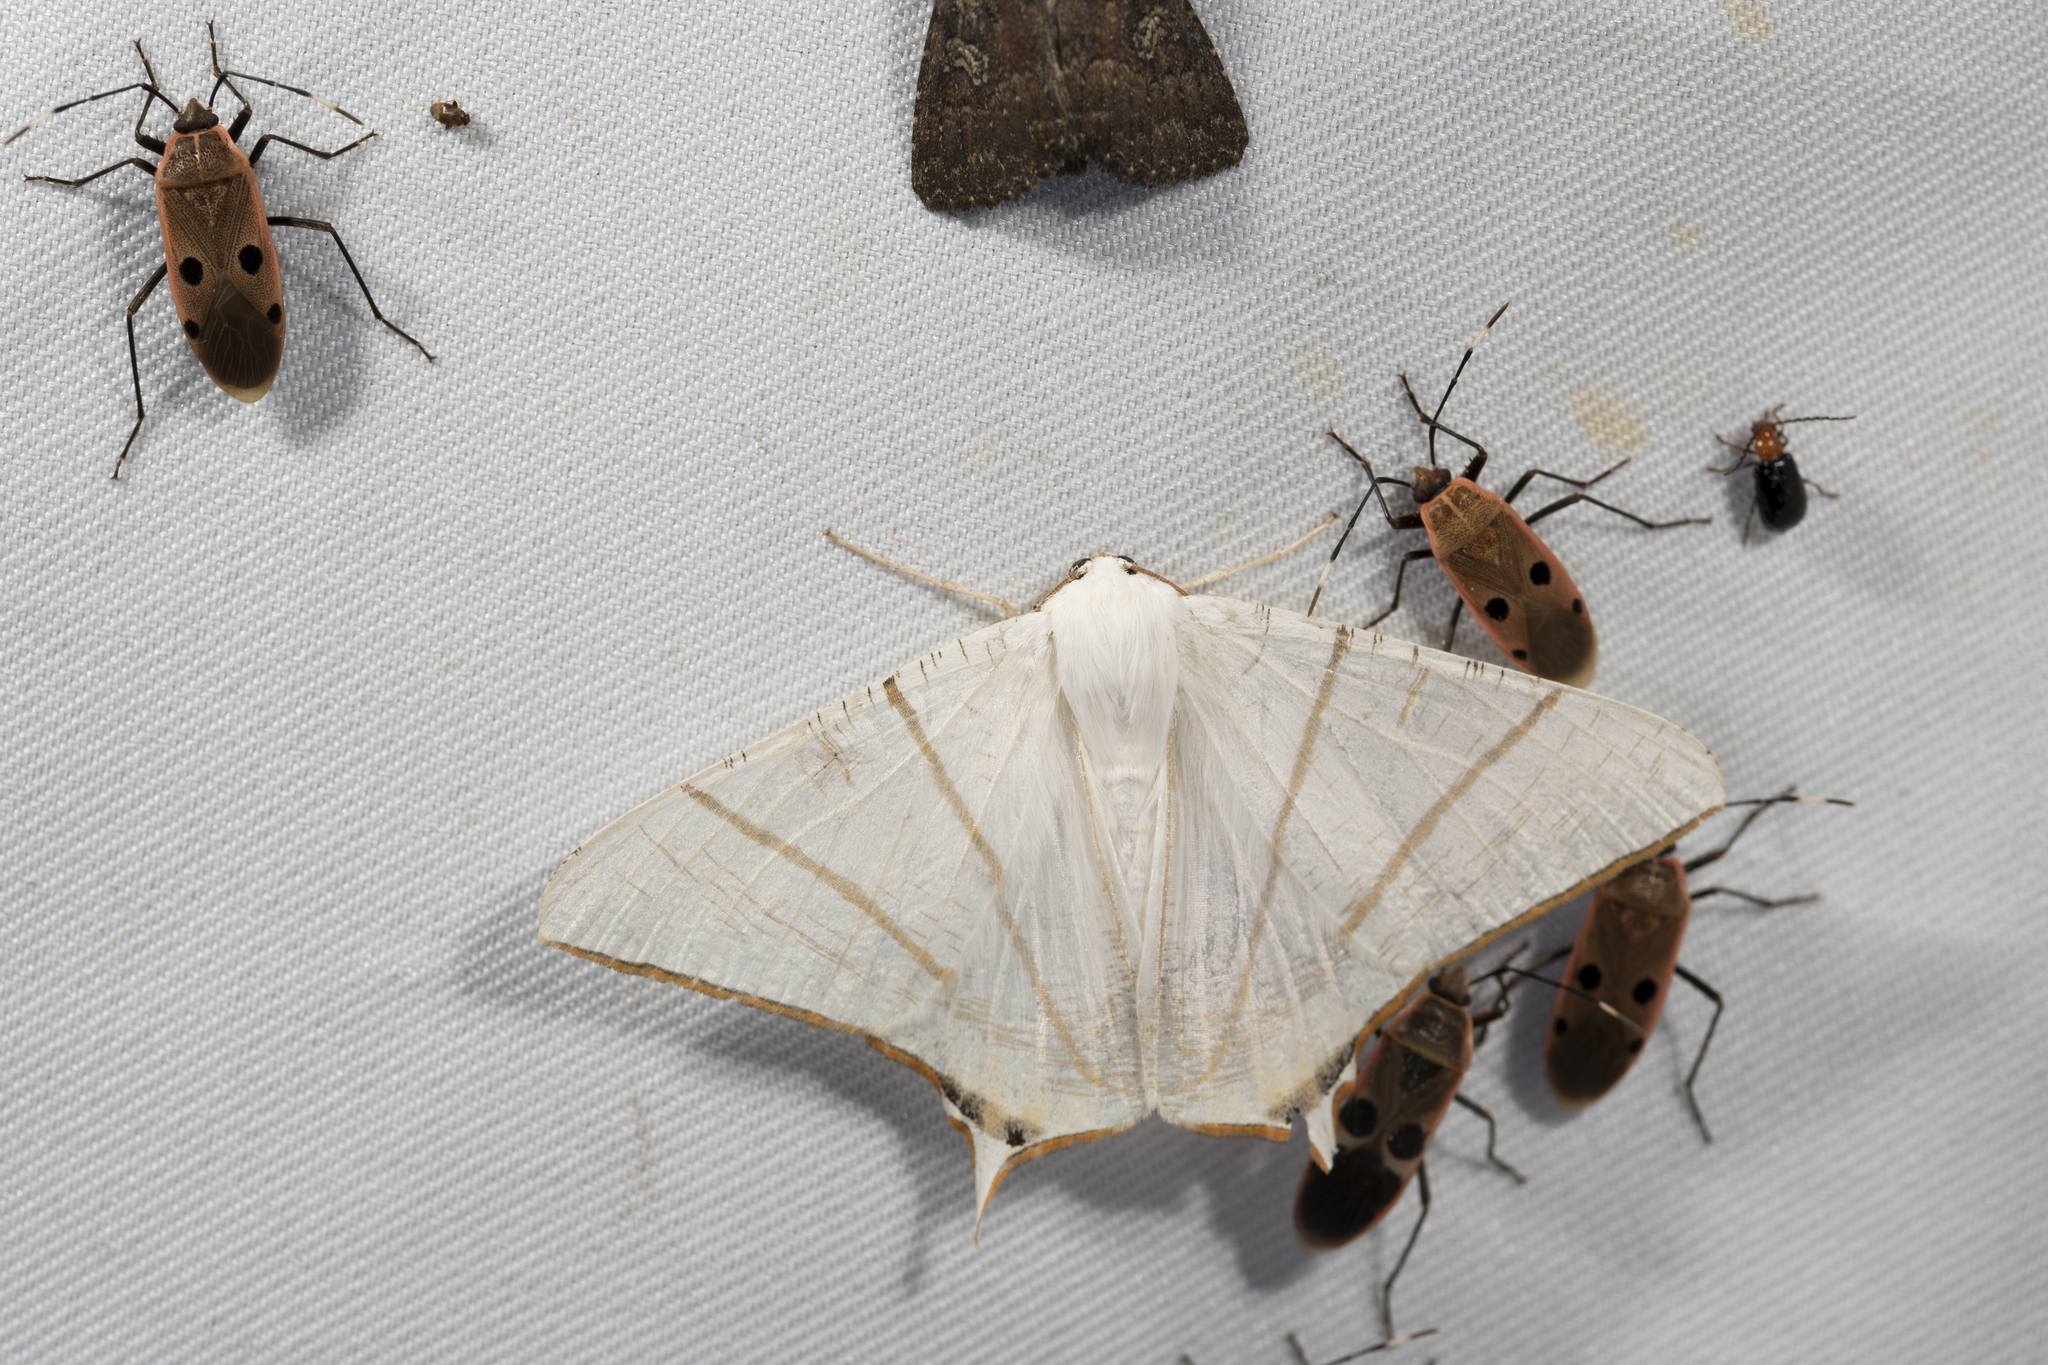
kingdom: Animalia
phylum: Arthropoda
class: Insecta
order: Lepidoptera
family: Geometridae
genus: Ourapteryx
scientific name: Ourapteryx clara
